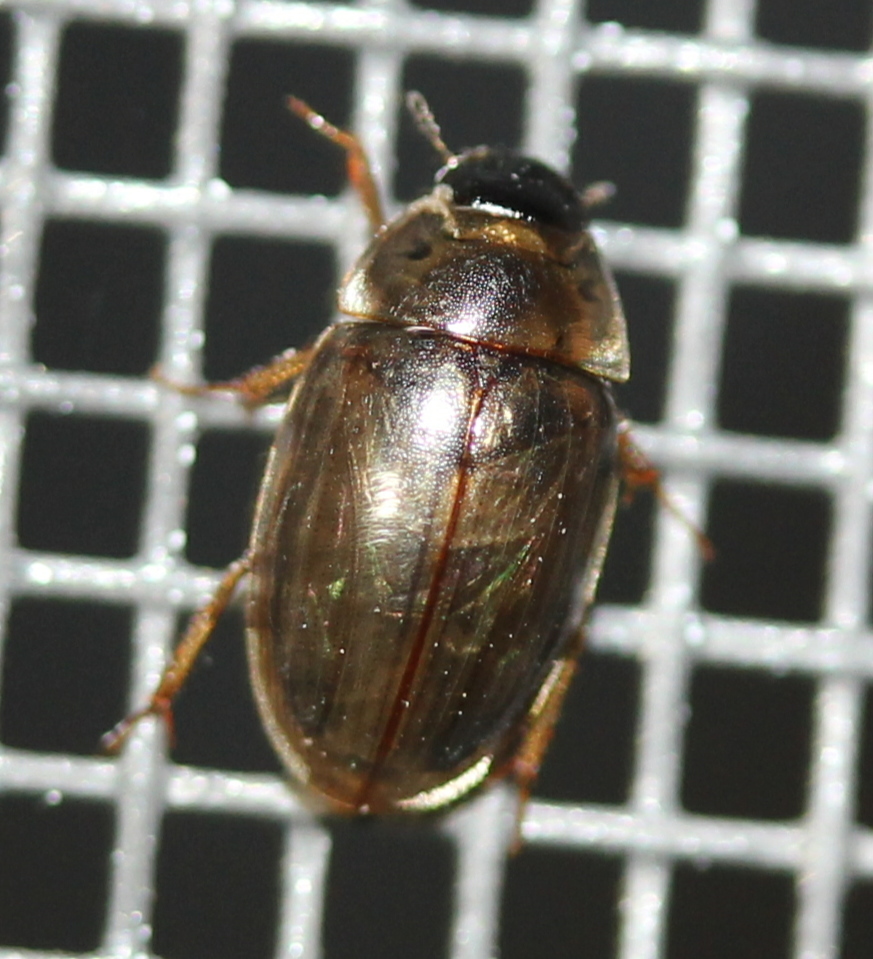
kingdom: Animalia
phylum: Arthropoda
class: Insecta
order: Coleoptera
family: Hydrophilidae
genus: Enochrus
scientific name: Enochrus
